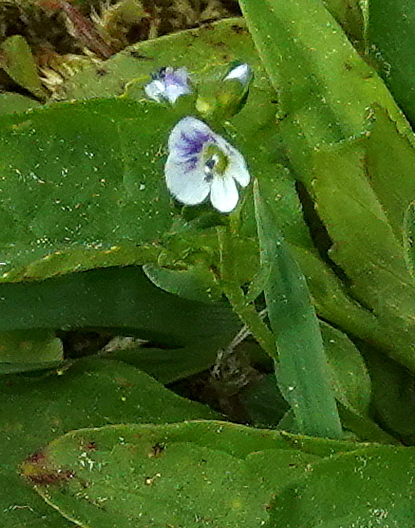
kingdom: Plantae
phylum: Tracheophyta
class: Magnoliopsida
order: Lamiales
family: Plantaginaceae
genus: Veronica
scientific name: Veronica serpyllifolia
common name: Thyme-leaved speedwell
